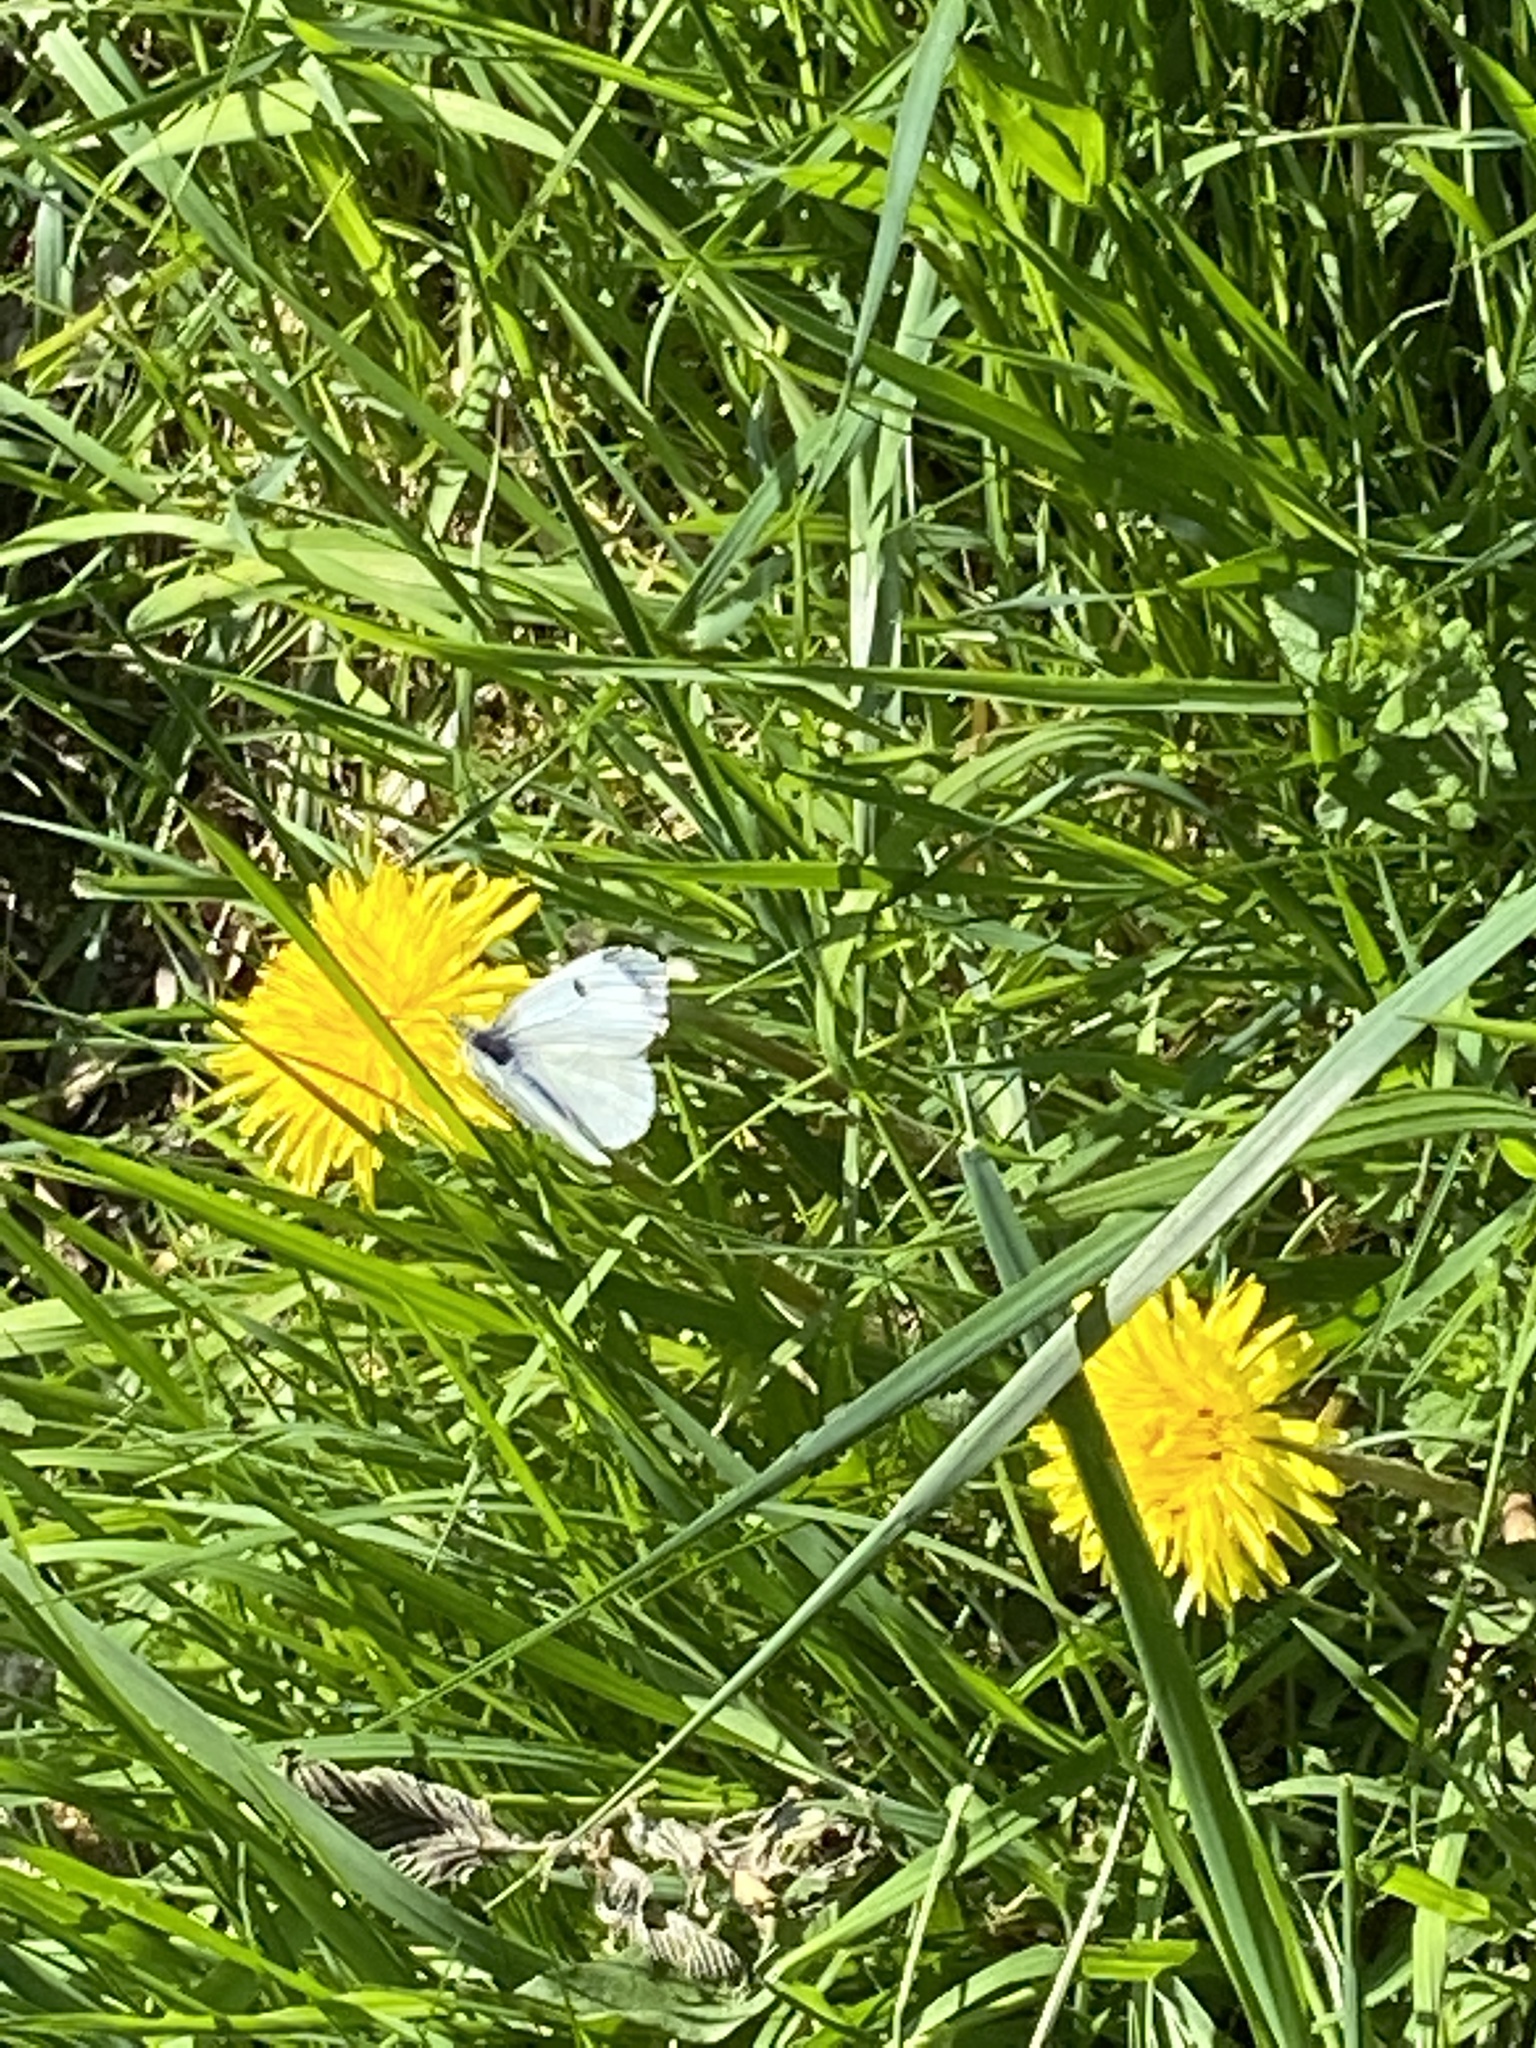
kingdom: Animalia
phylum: Arthropoda
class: Insecta
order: Lepidoptera
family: Pieridae
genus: Anthocharis
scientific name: Anthocharis cardamines
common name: Orange-tip
